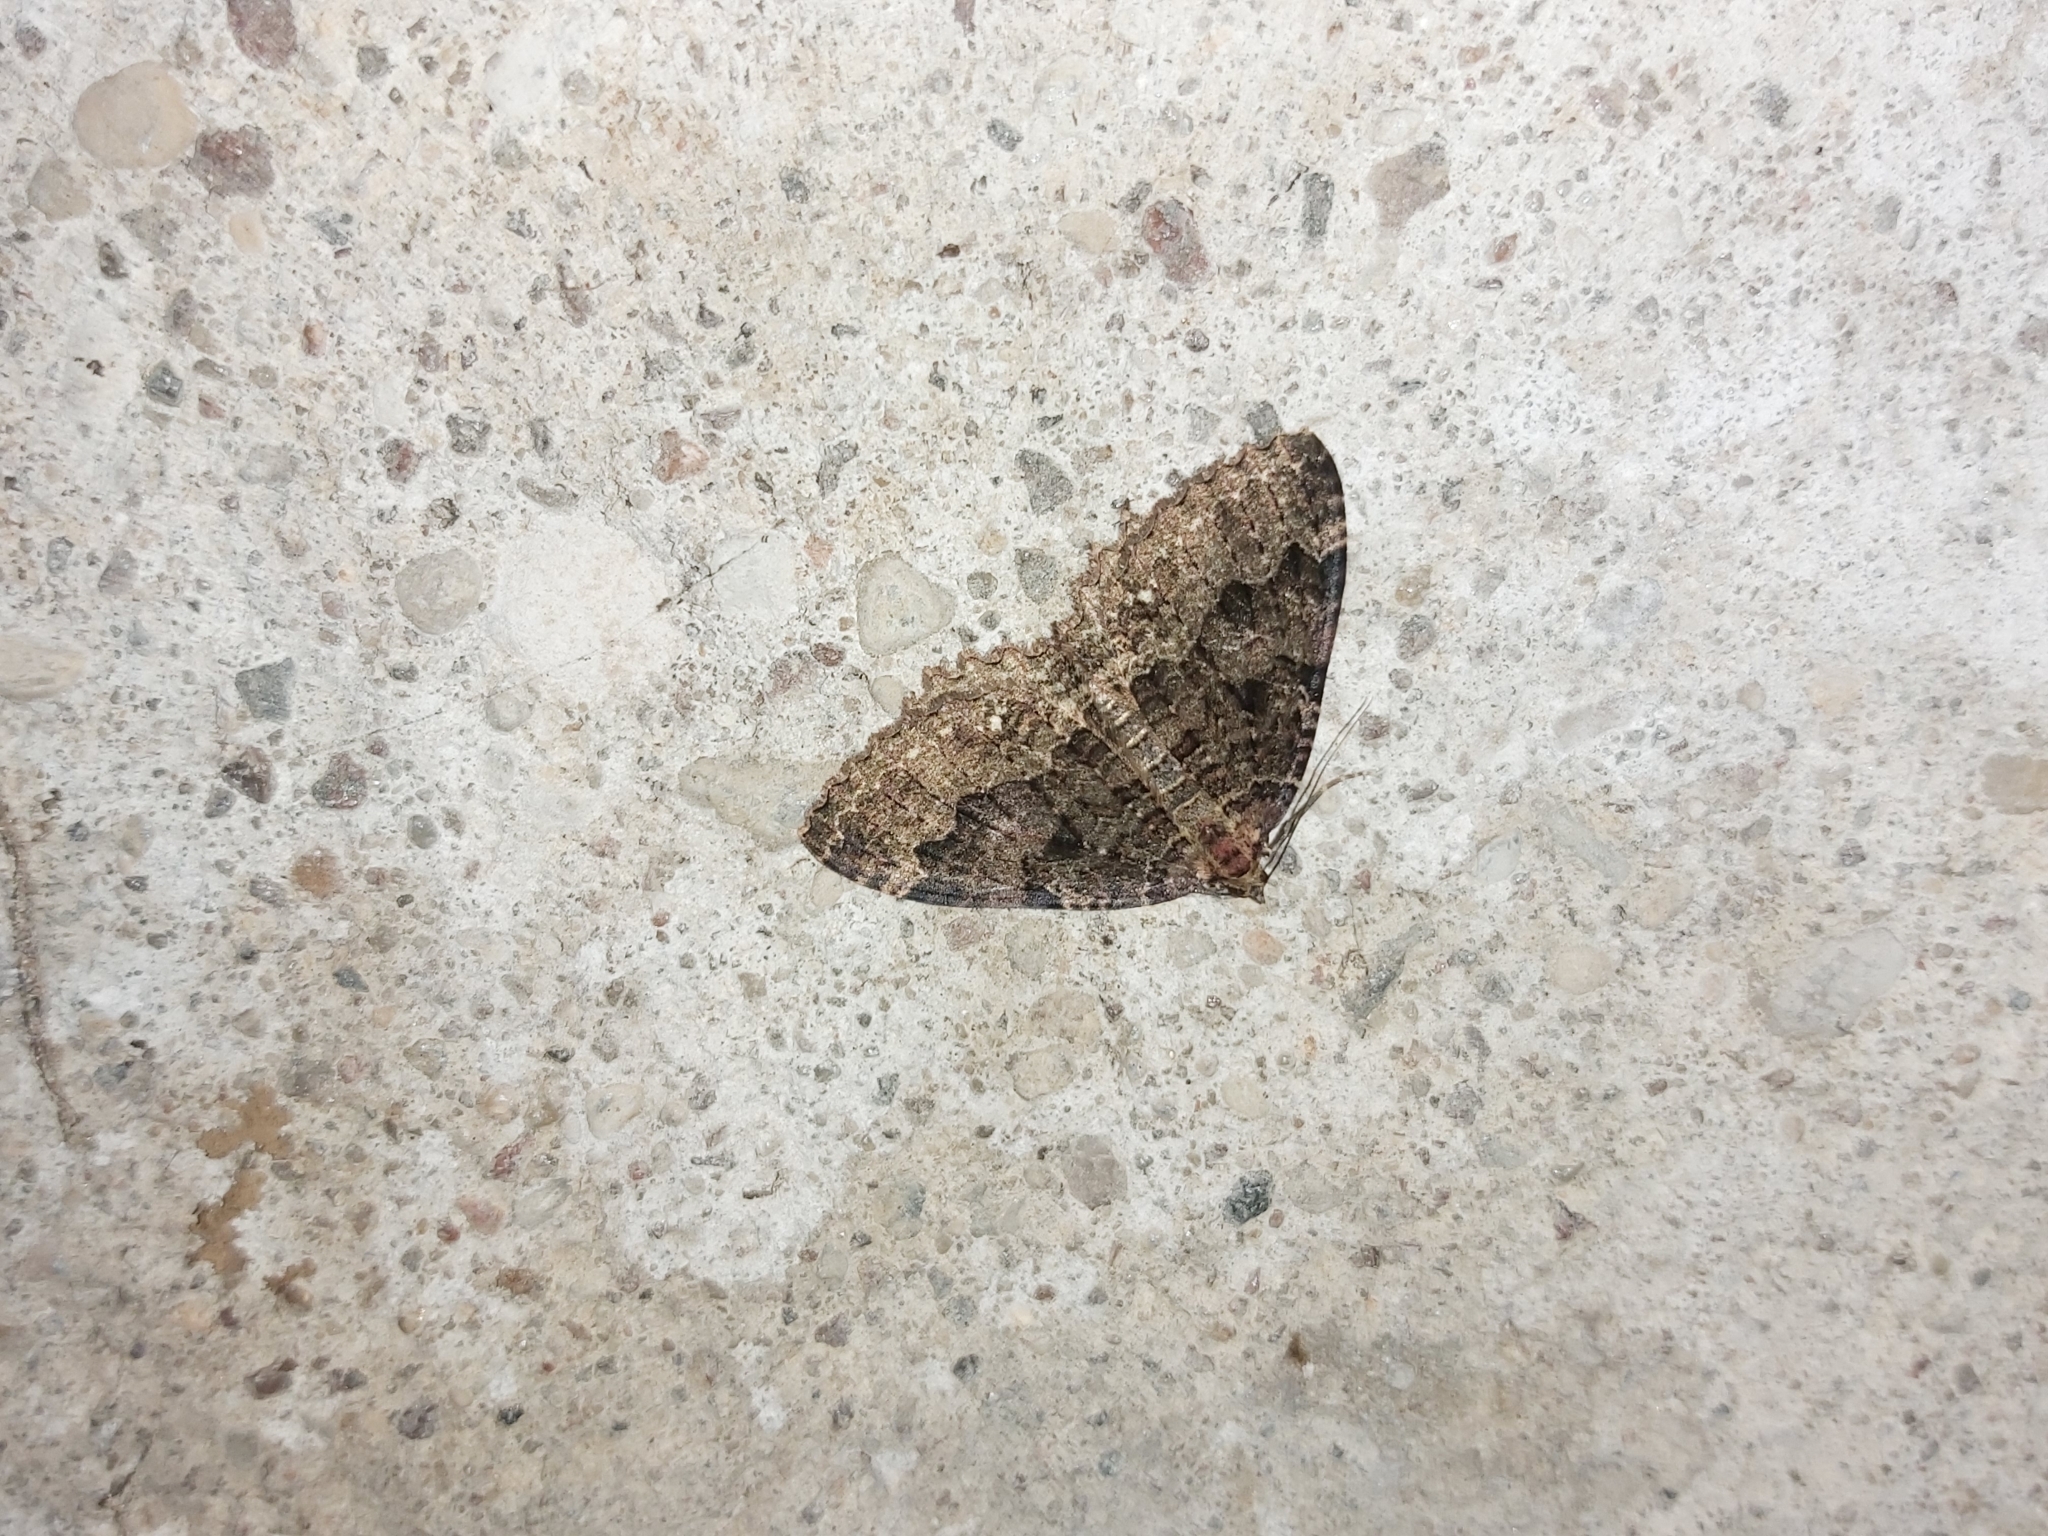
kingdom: Animalia
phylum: Arthropoda
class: Insecta
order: Lepidoptera
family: Geometridae
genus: Triphosa
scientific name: Triphosa dubitata
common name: Tissue
